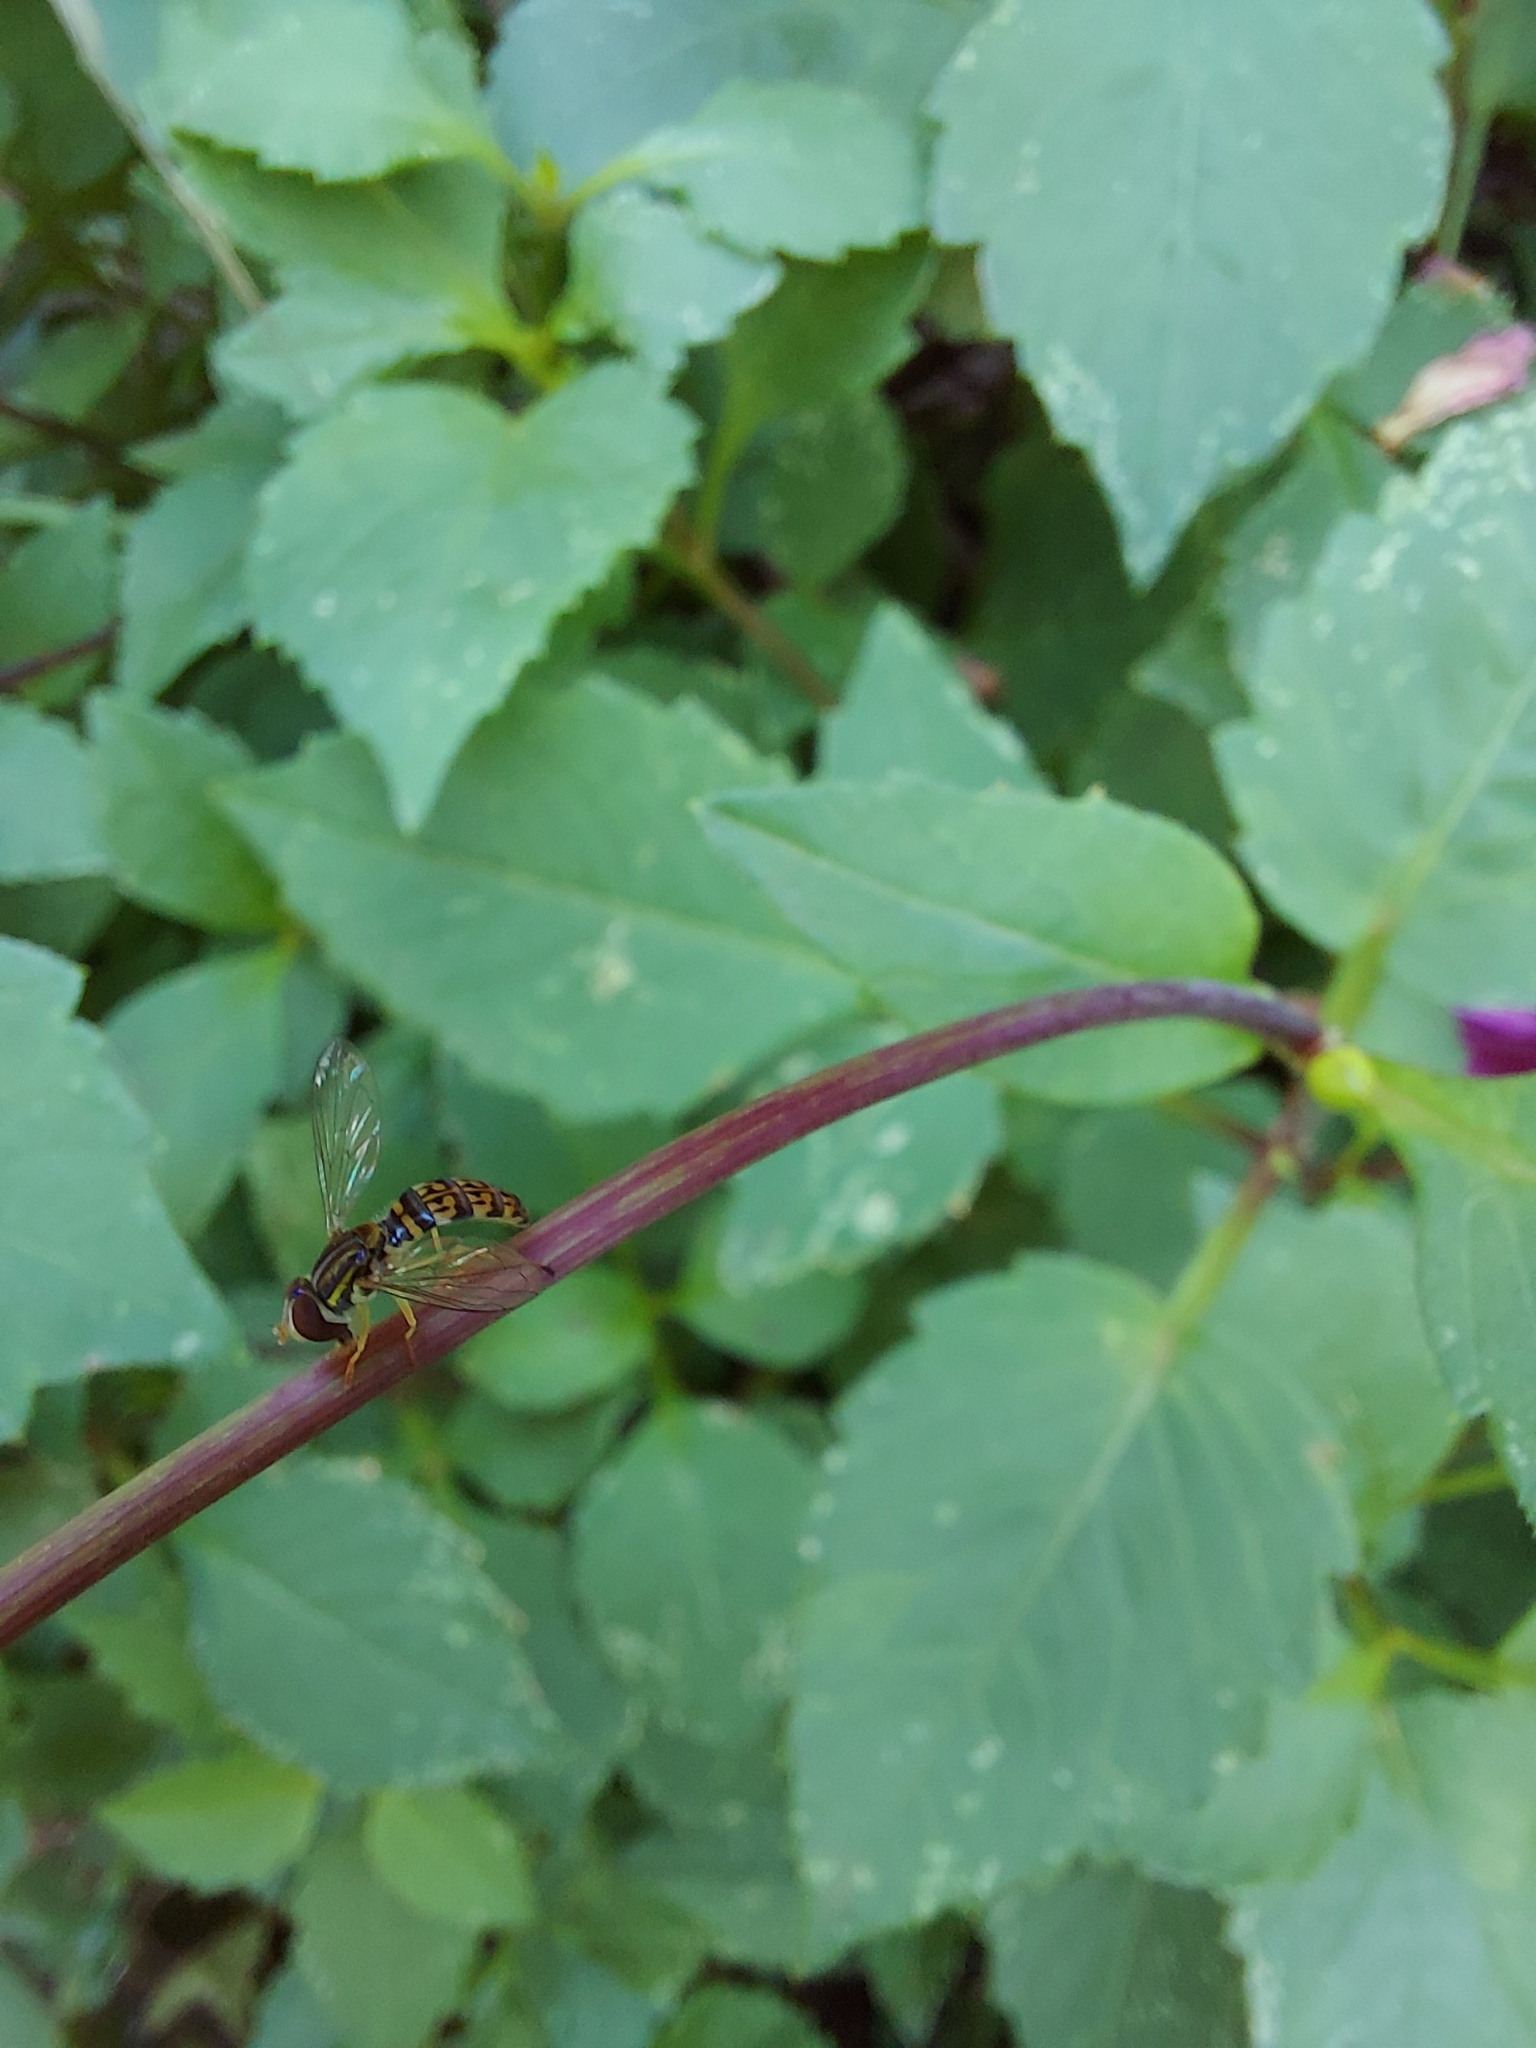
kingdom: Animalia
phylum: Arthropoda
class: Insecta
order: Diptera
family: Syrphidae
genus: Toxomerus
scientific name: Toxomerus
